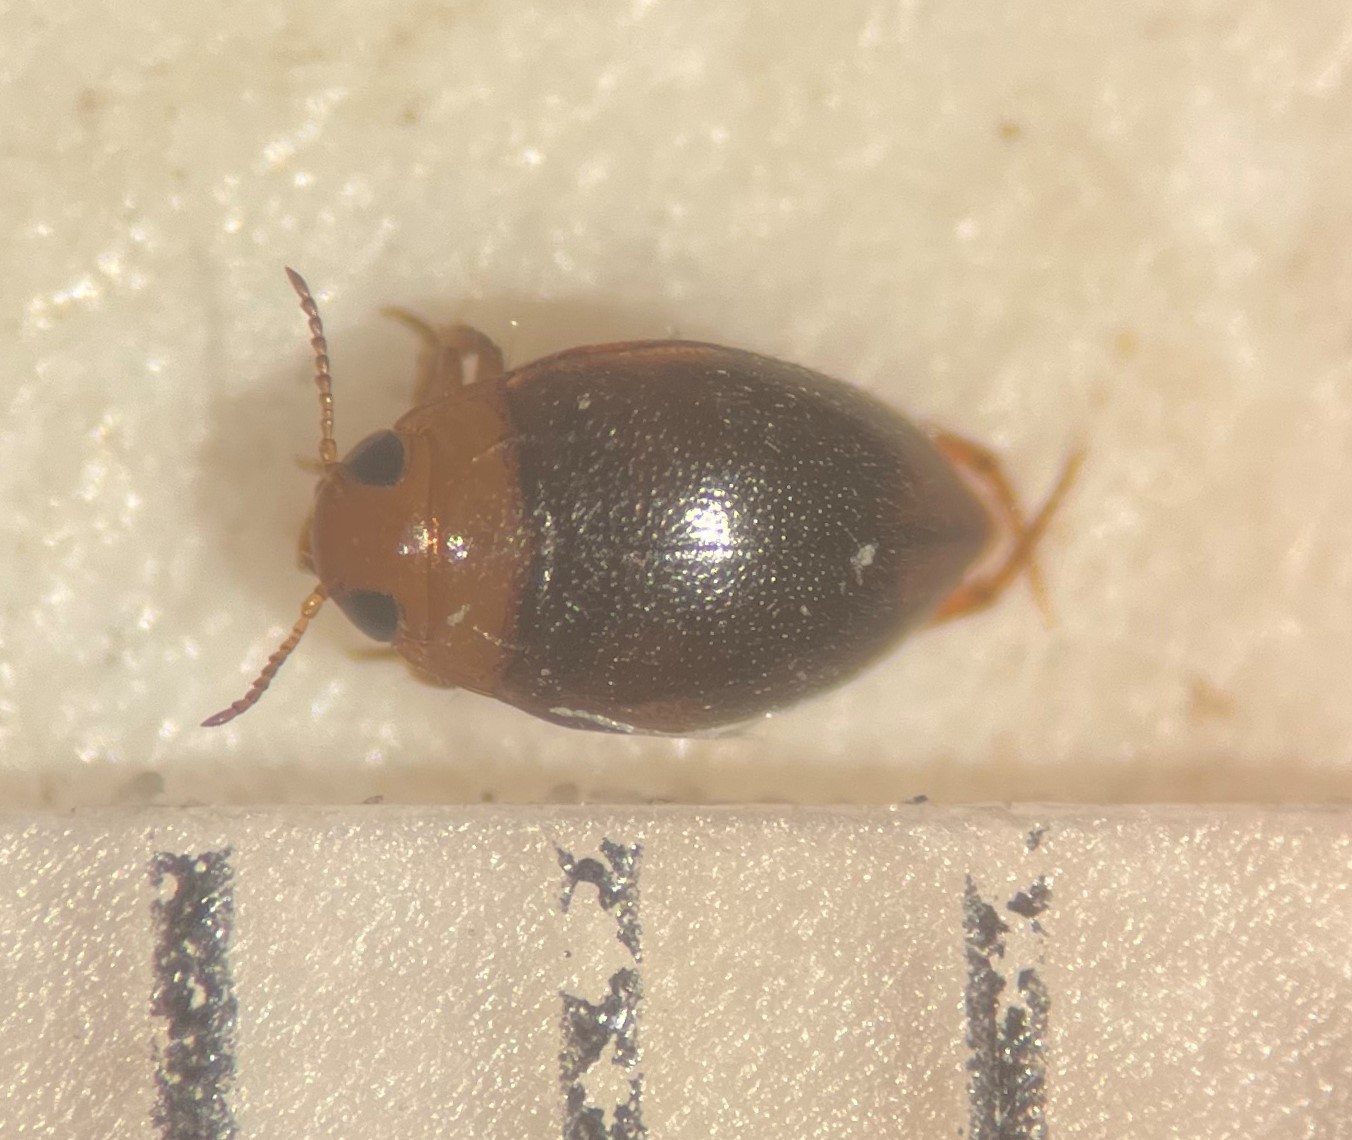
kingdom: Animalia
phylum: Arthropoda
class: Insecta
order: Coleoptera
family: Dytiscidae
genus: Uvarus
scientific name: Uvarus rogersi
